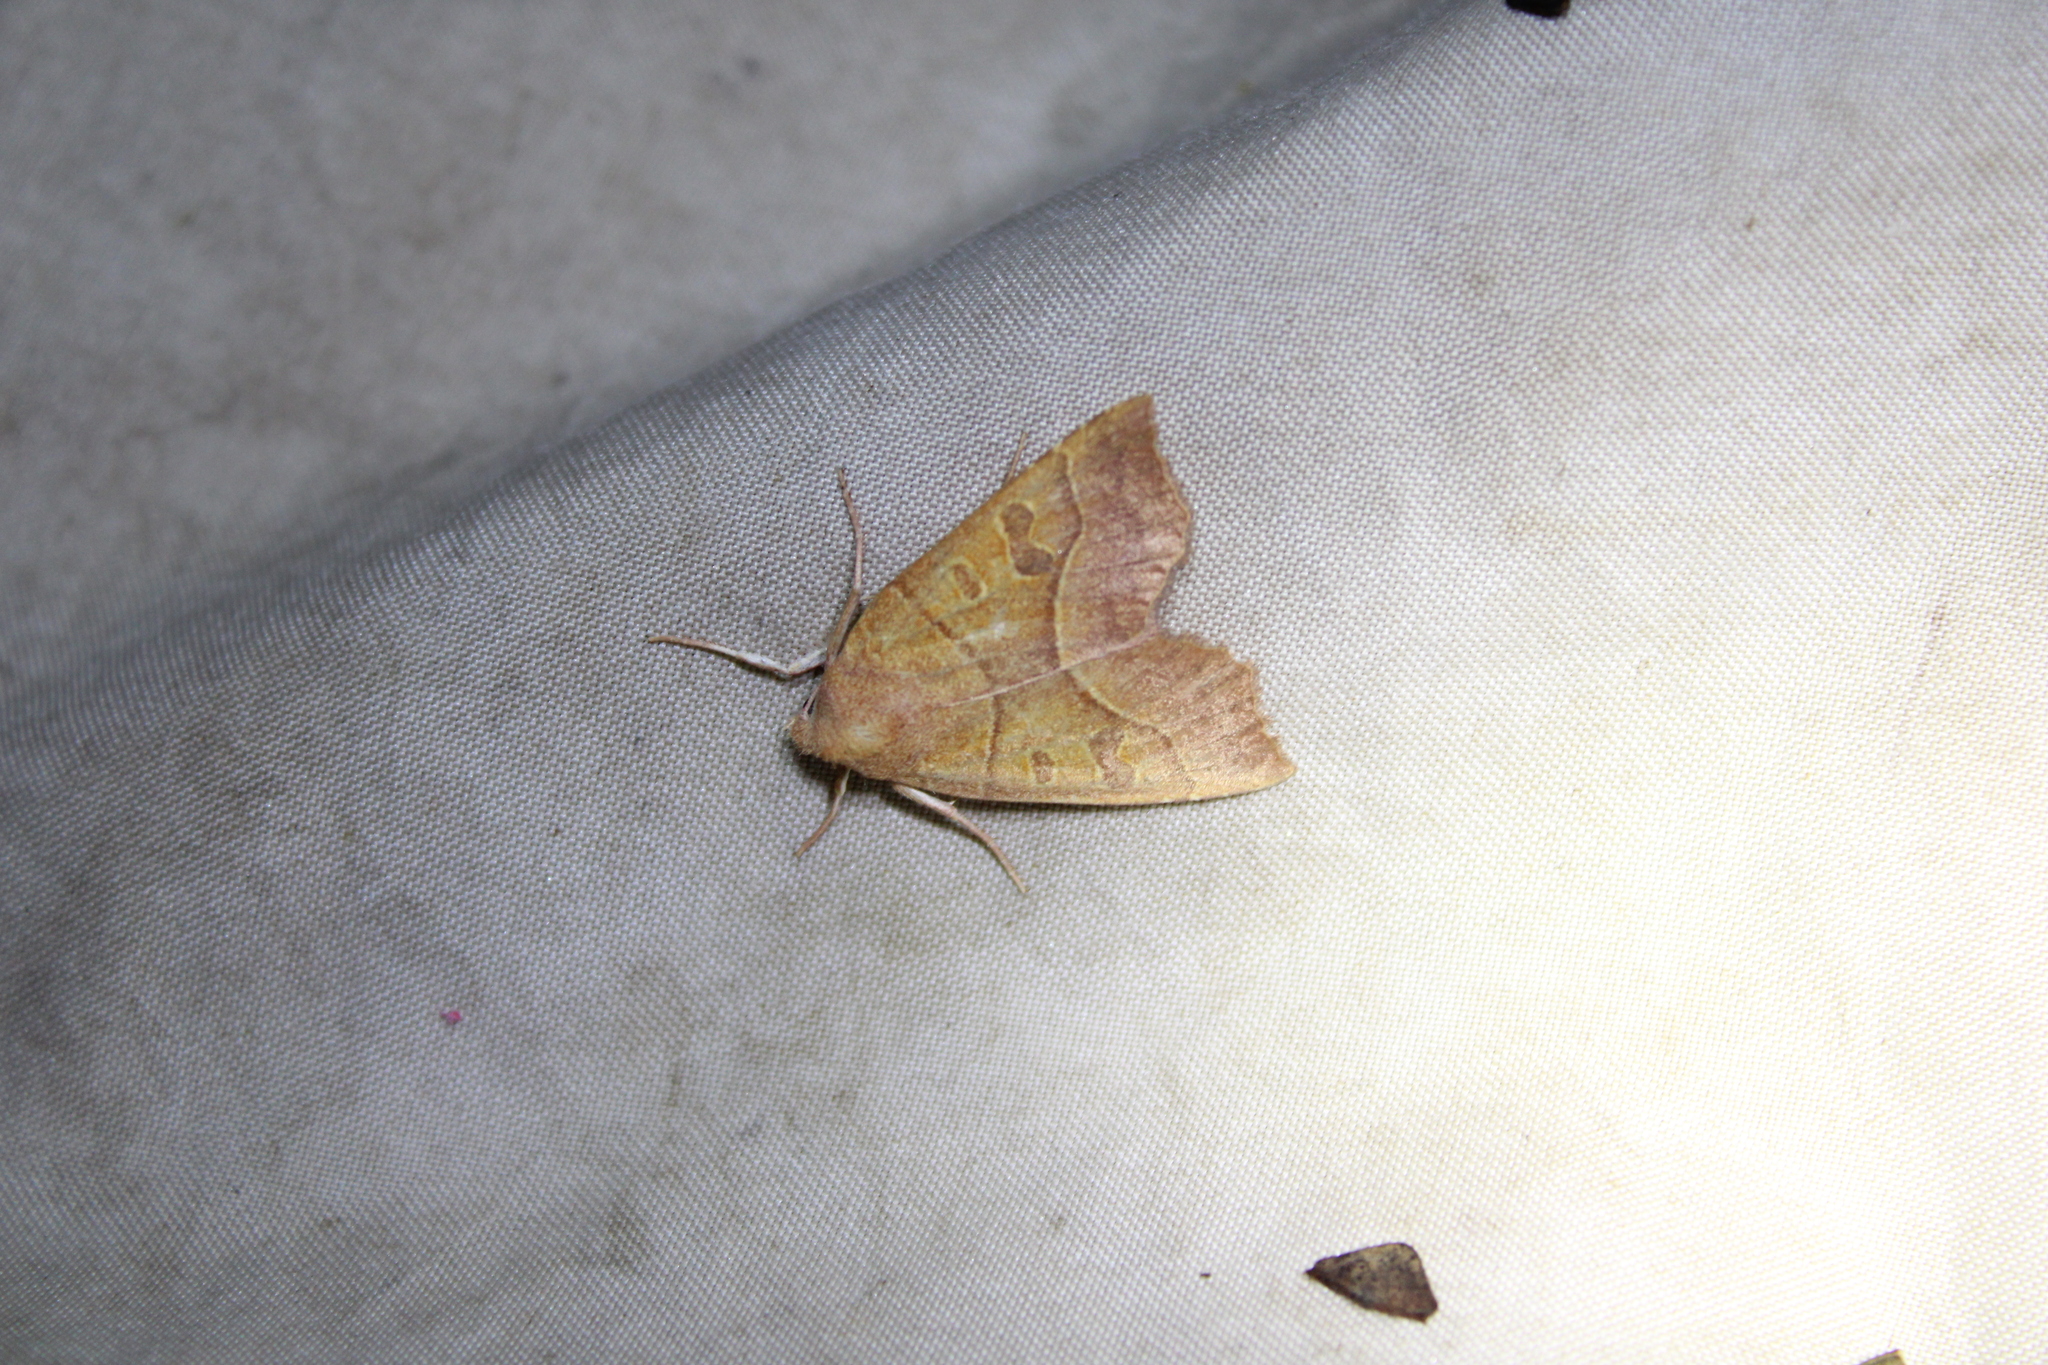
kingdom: Animalia
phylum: Arthropoda
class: Insecta
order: Lepidoptera
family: Noctuidae
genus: Eucirroedia
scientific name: Eucirroedia pampina
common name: Scalloped sallow
